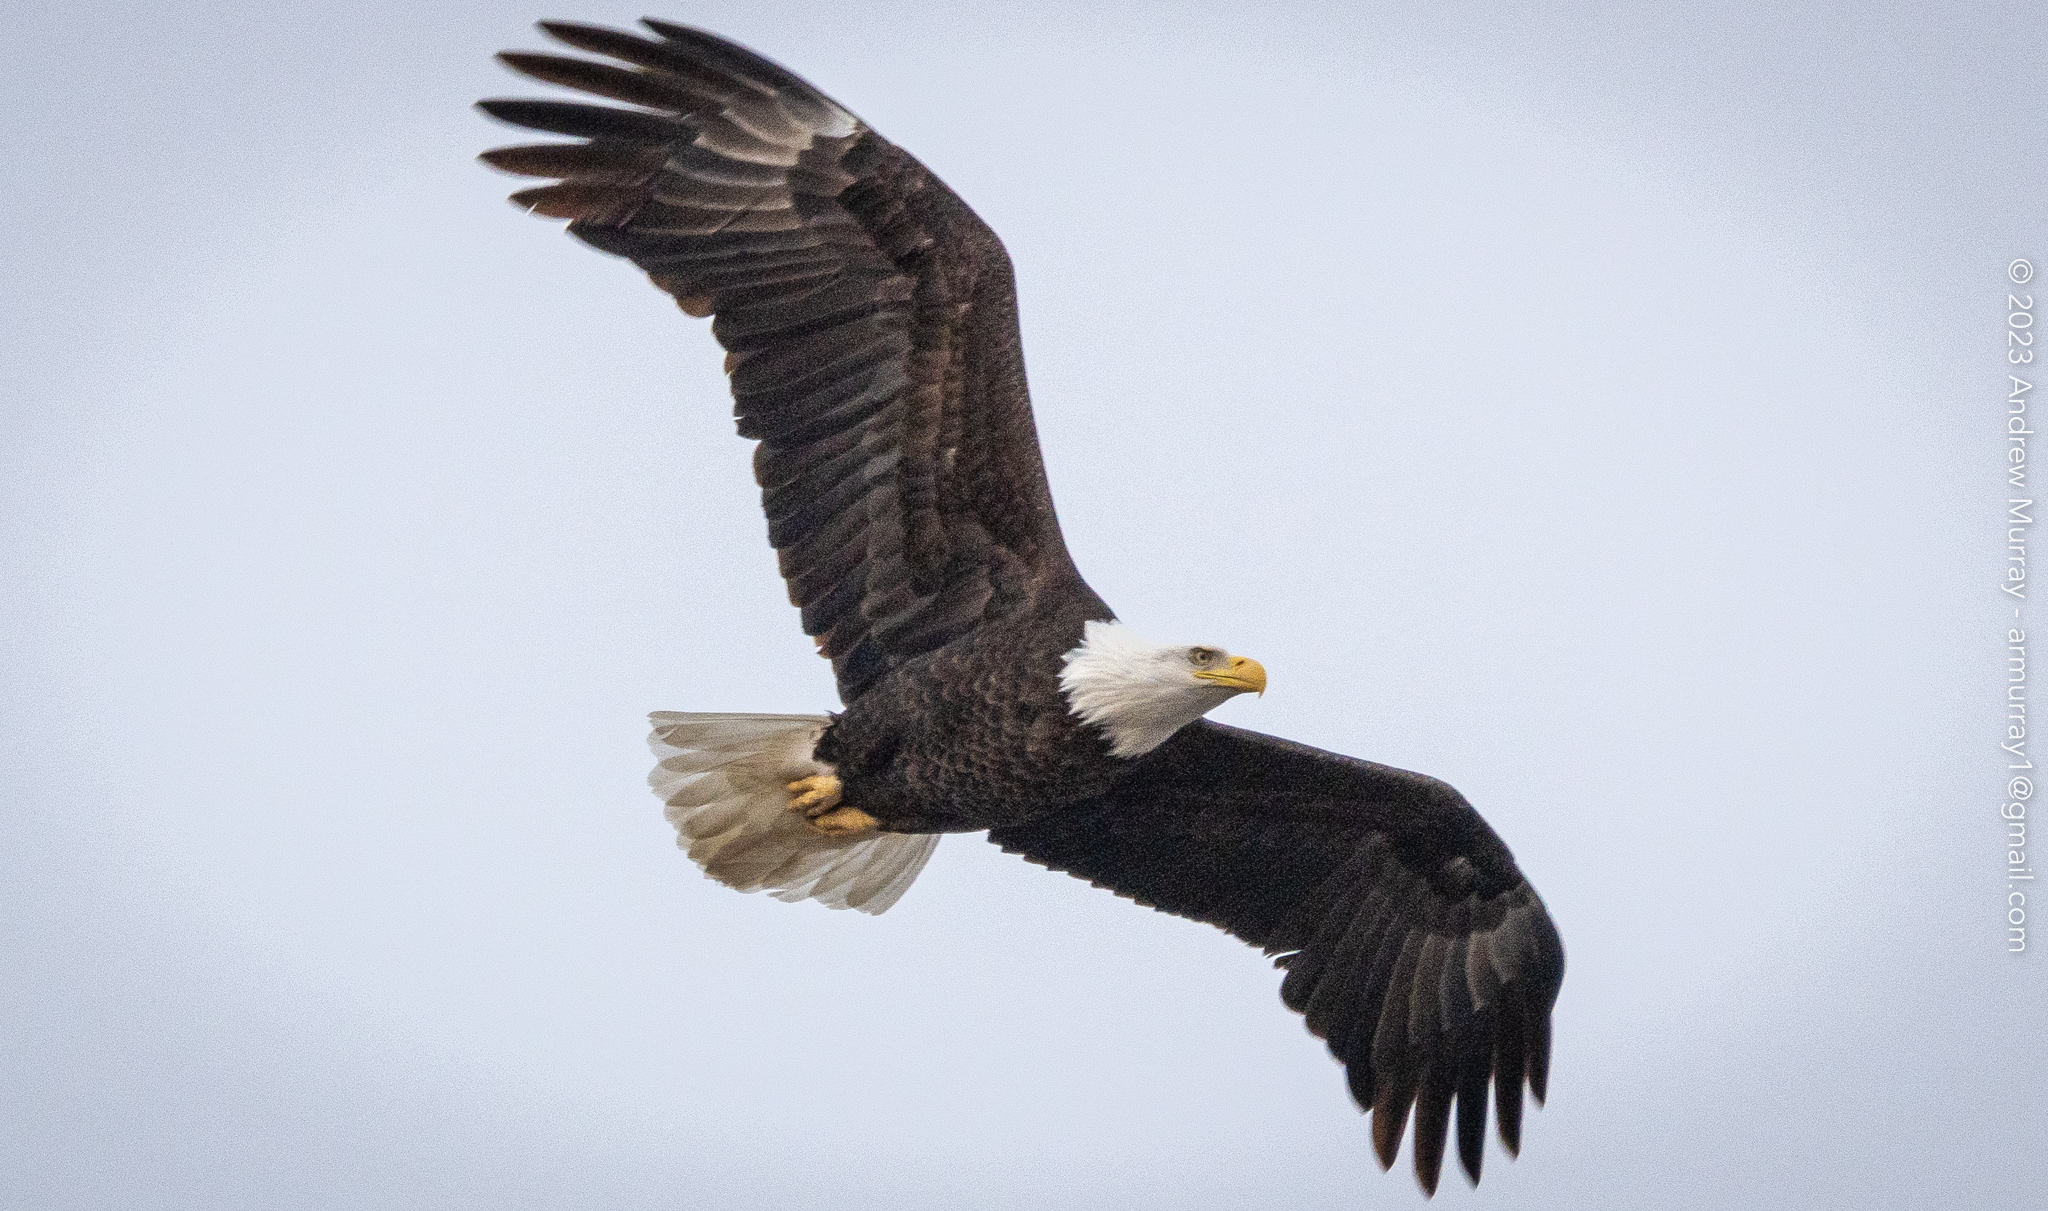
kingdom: Animalia
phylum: Chordata
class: Aves
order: Accipitriformes
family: Accipitridae
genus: Haliaeetus
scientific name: Haliaeetus leucocephalus
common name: Bald eagle
